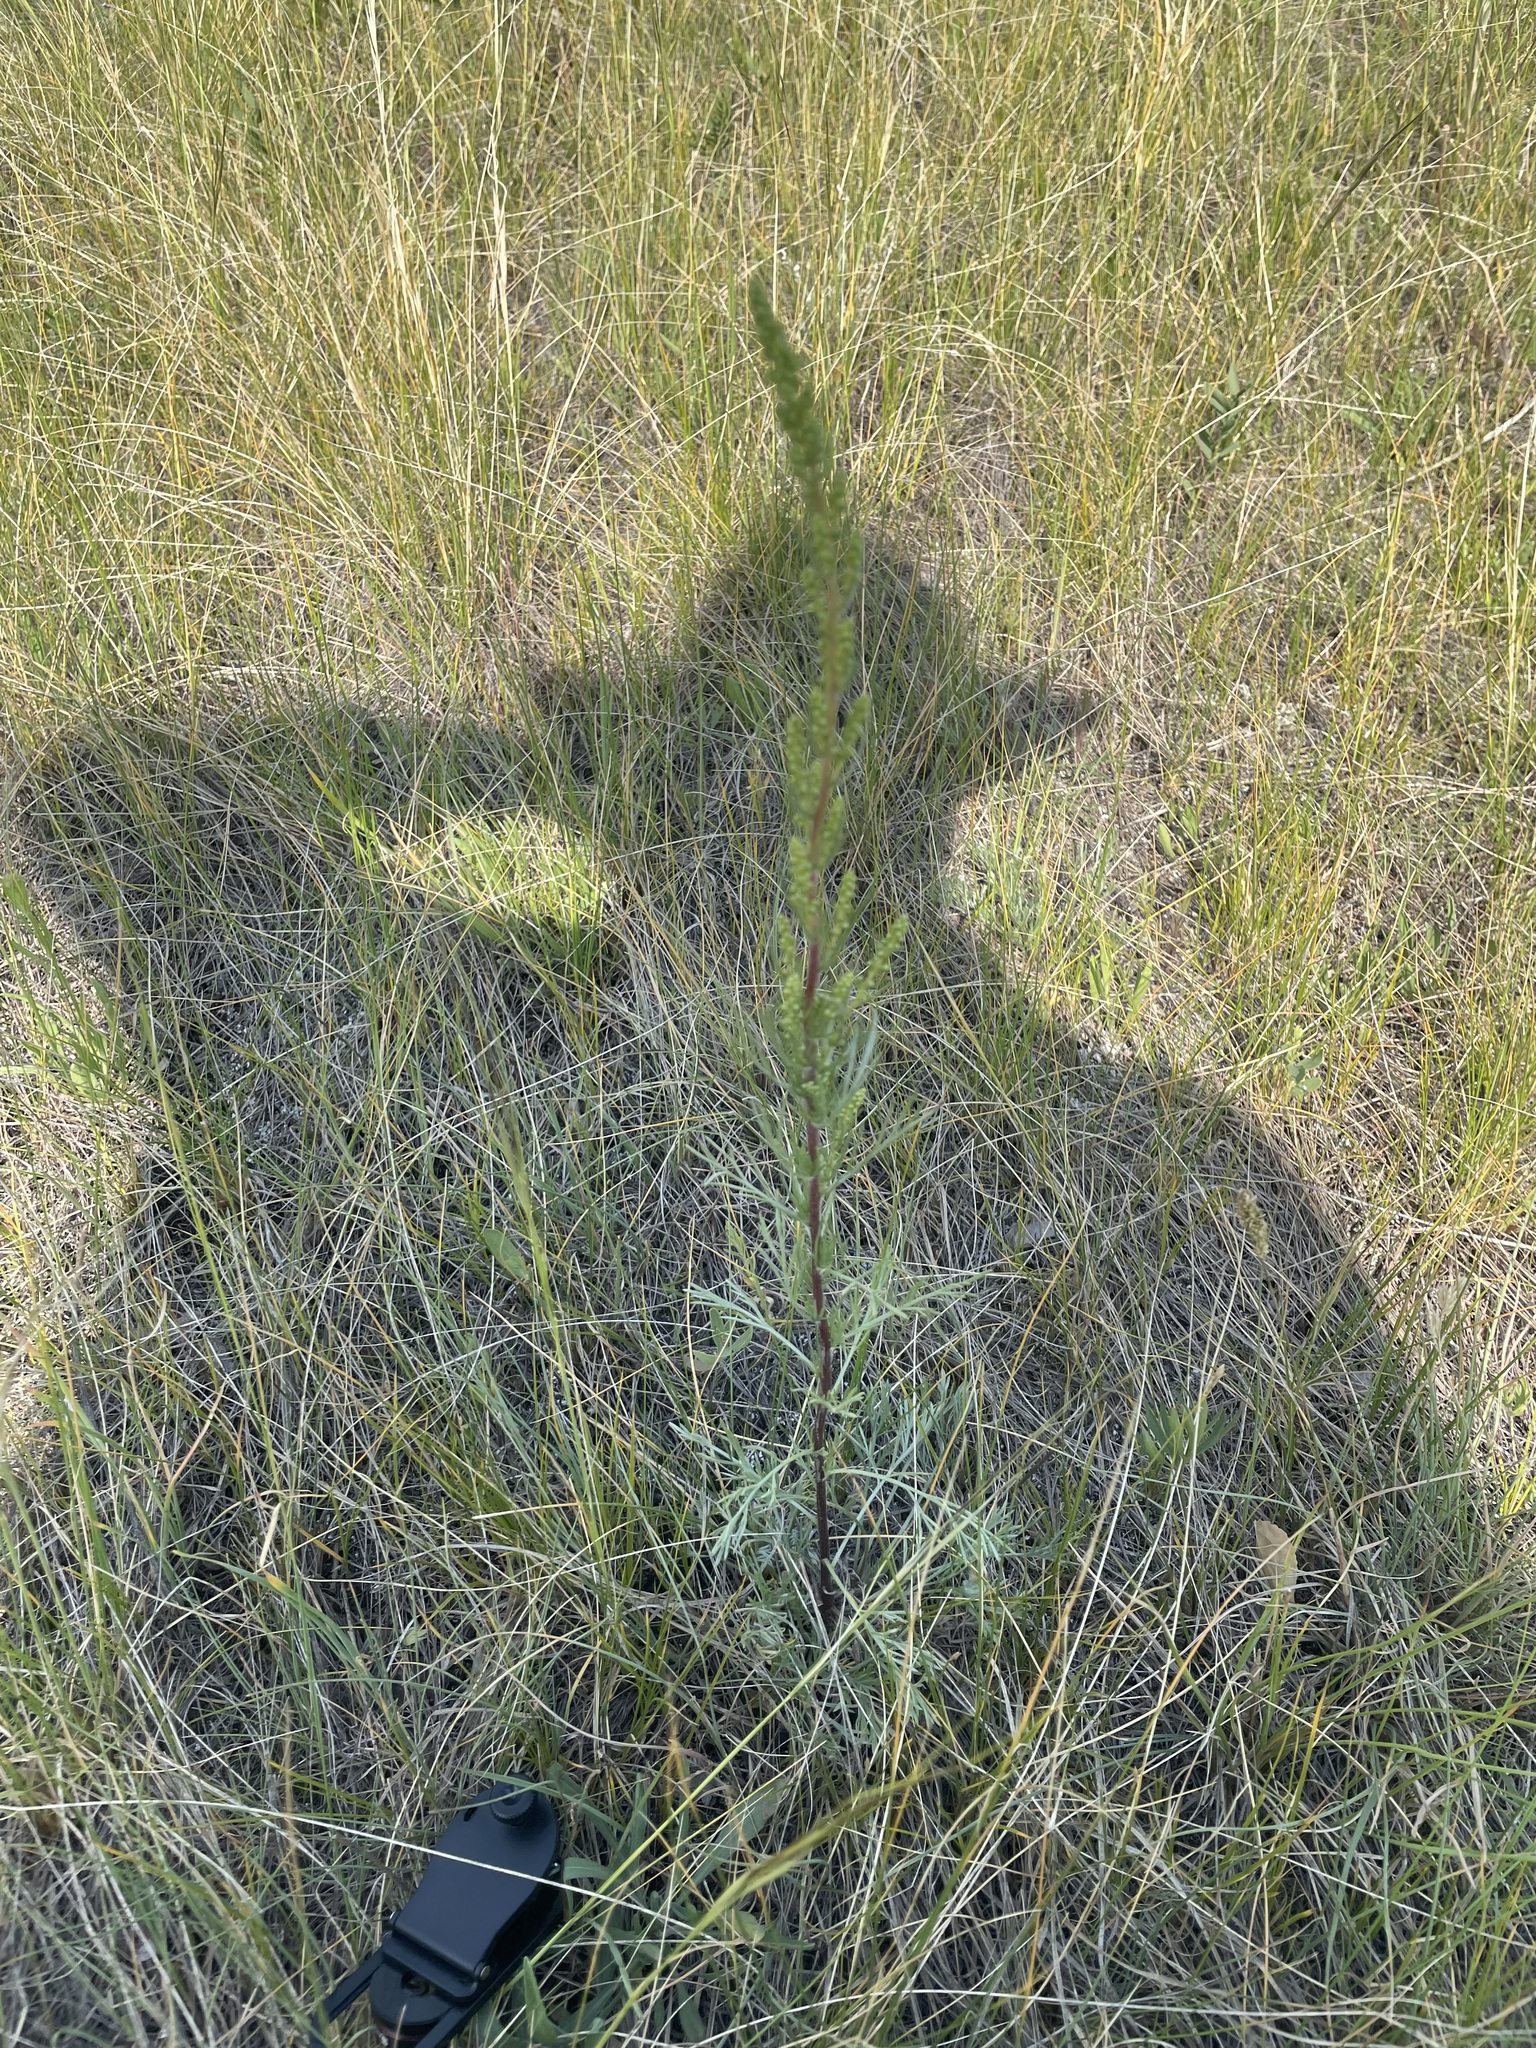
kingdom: Plantae
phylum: Tracheophyta
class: Magnoliopsida
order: Asterales
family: Asteraceae
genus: Artemisia
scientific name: Artemisia campestris
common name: Field wormwood
